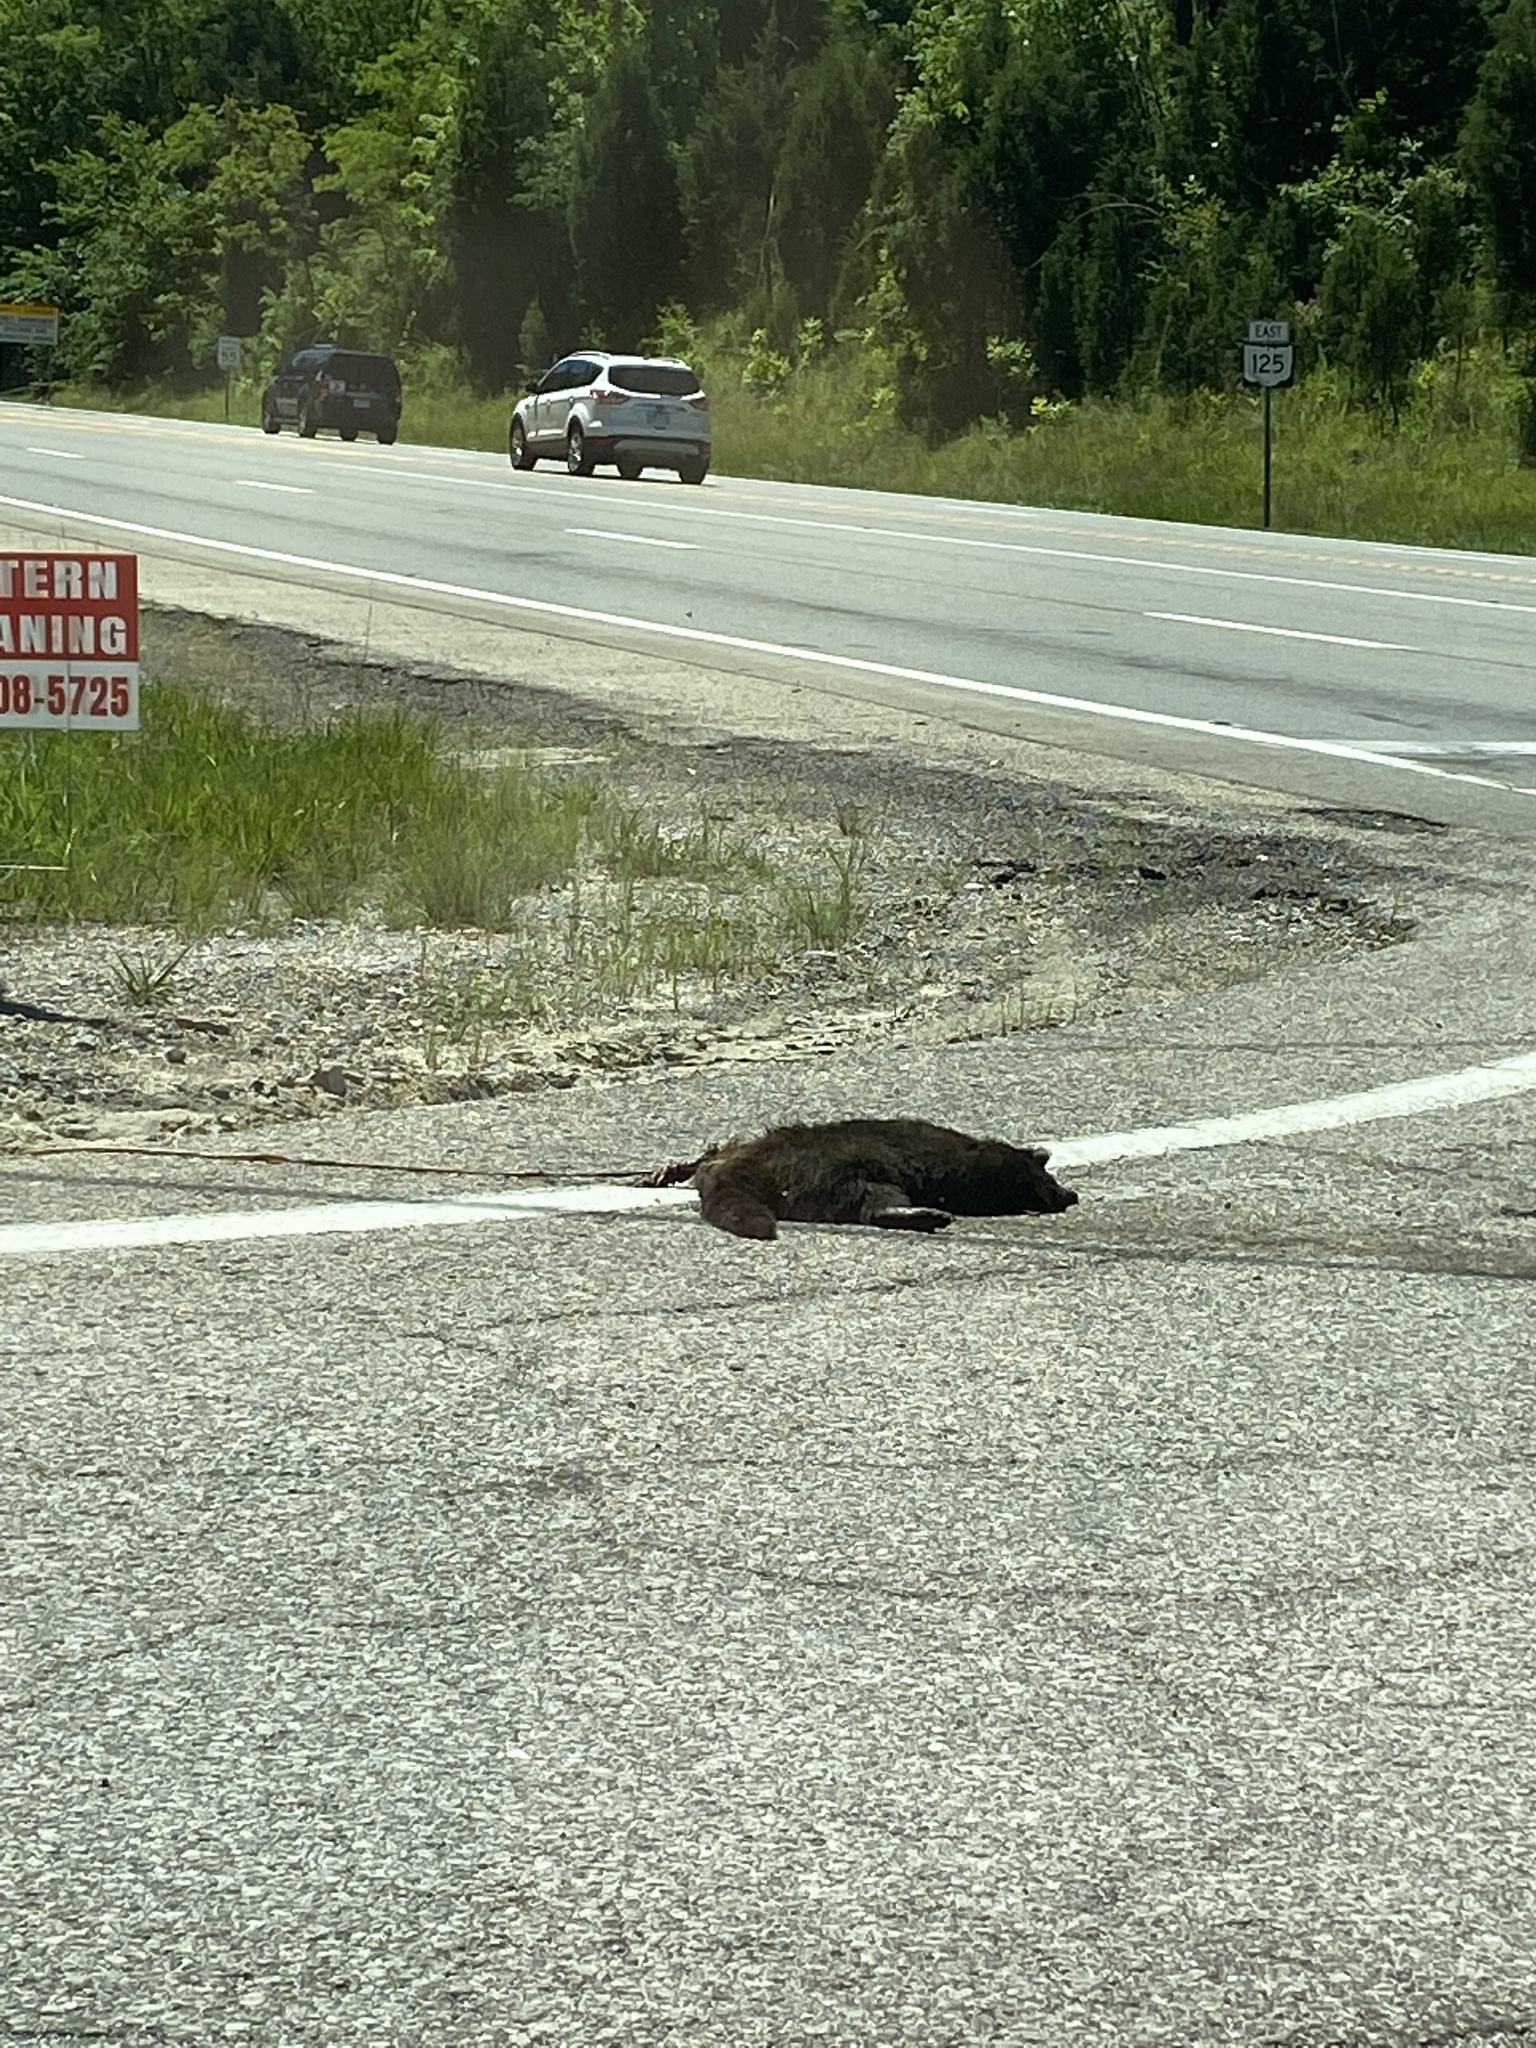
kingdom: Animalia
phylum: Chordata
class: Mammalia
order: Carnivora
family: Procyonidae
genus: Procyon
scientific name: Procyon lotor
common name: Raccoon
